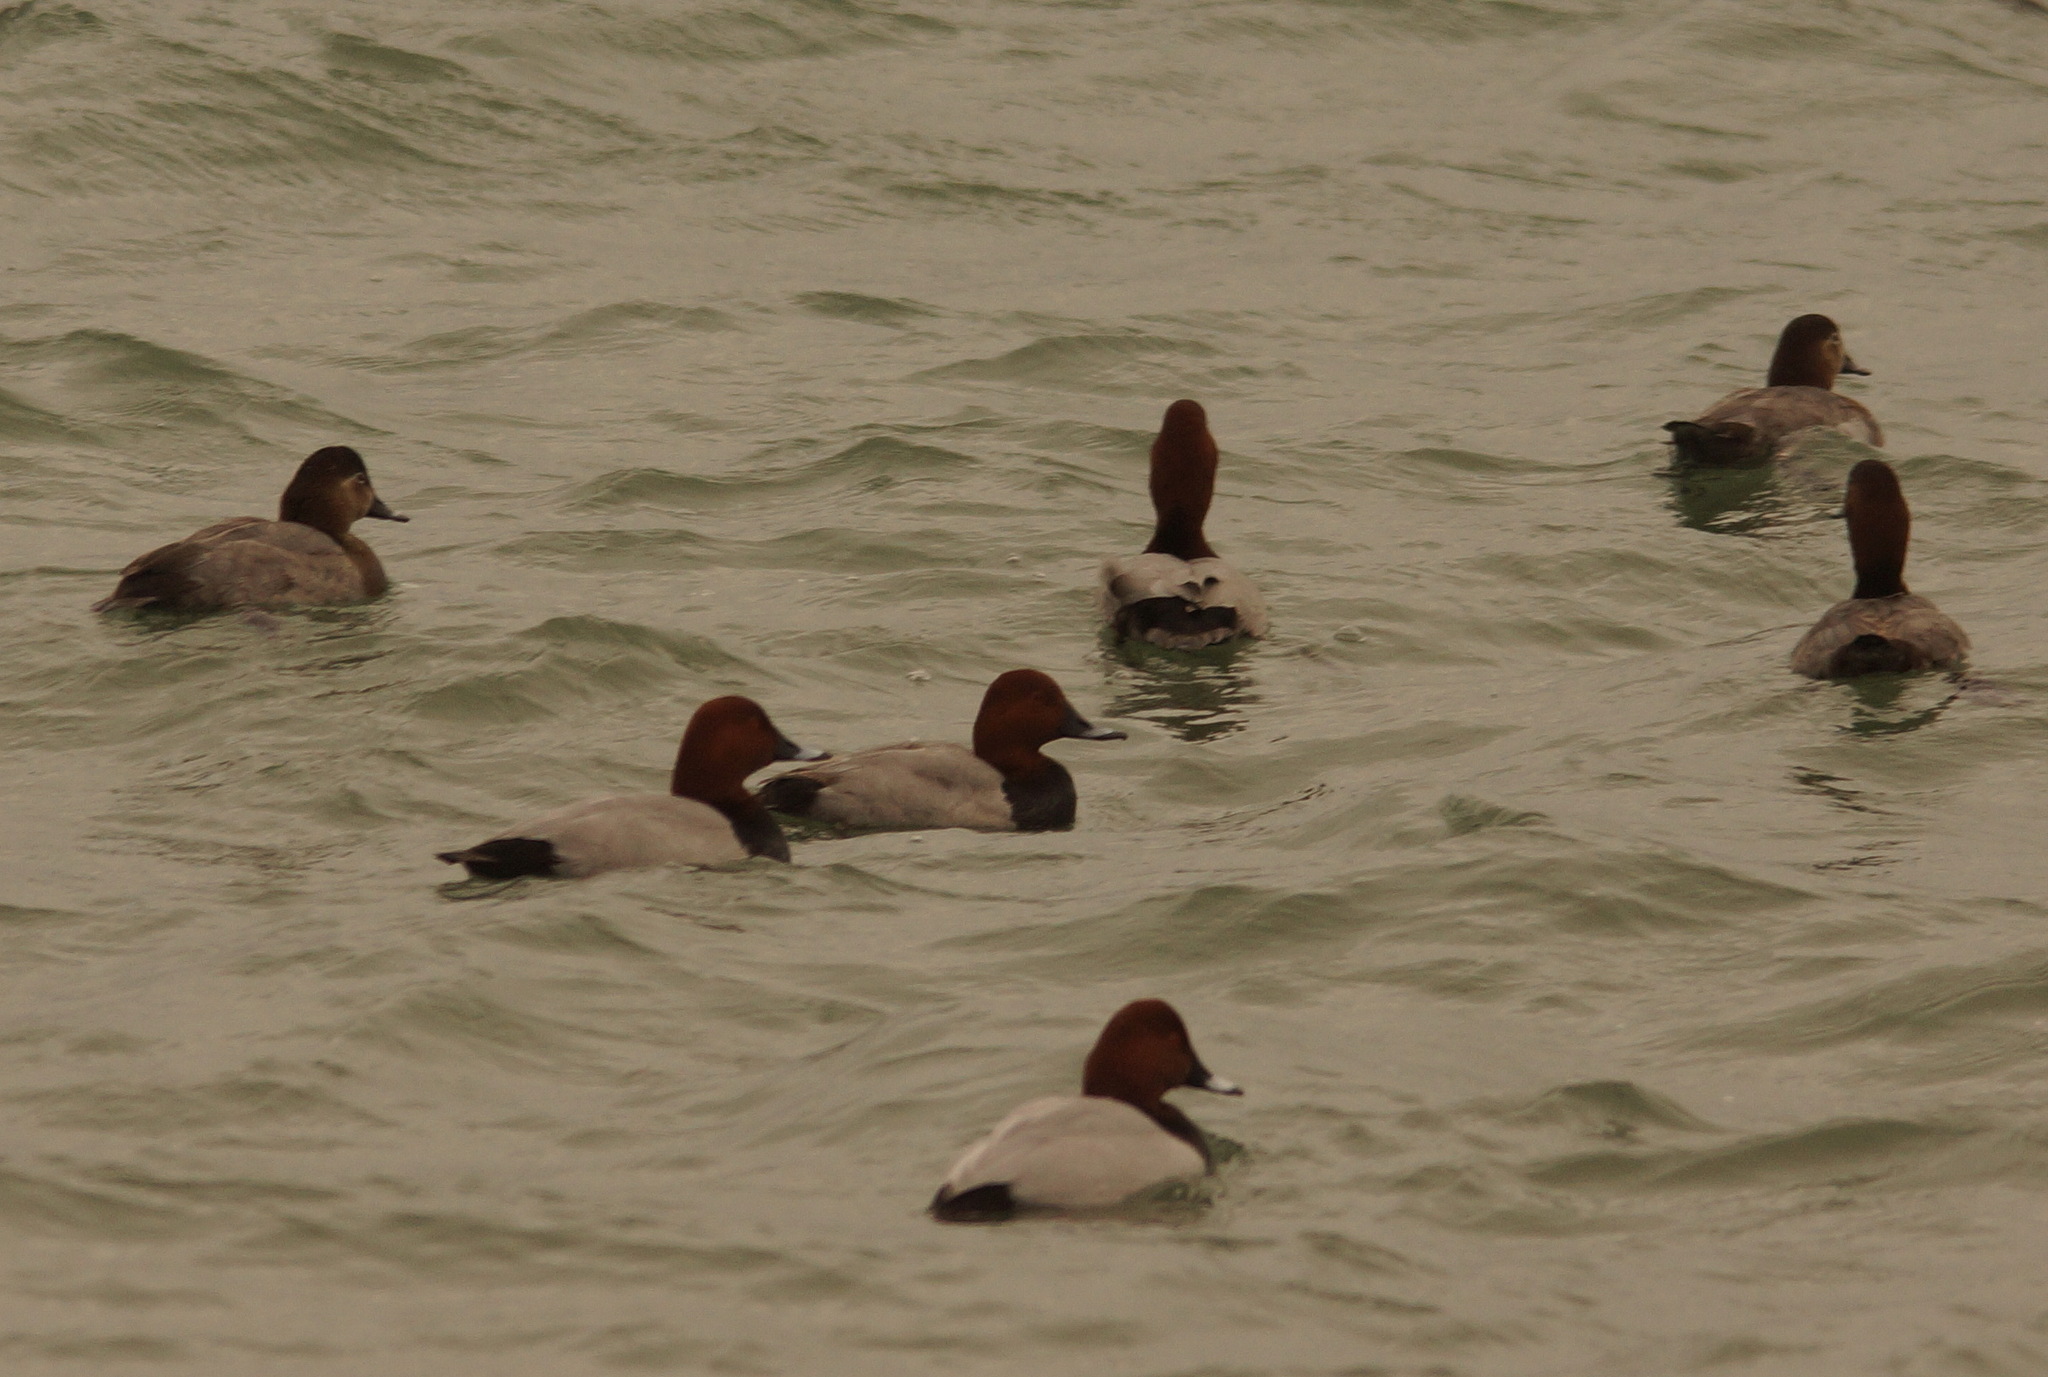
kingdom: Animalia
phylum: Chordata
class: Aves
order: Anseriformes
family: Anatidae
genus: Aythya
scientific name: Aythya ferina
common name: Common pochard
